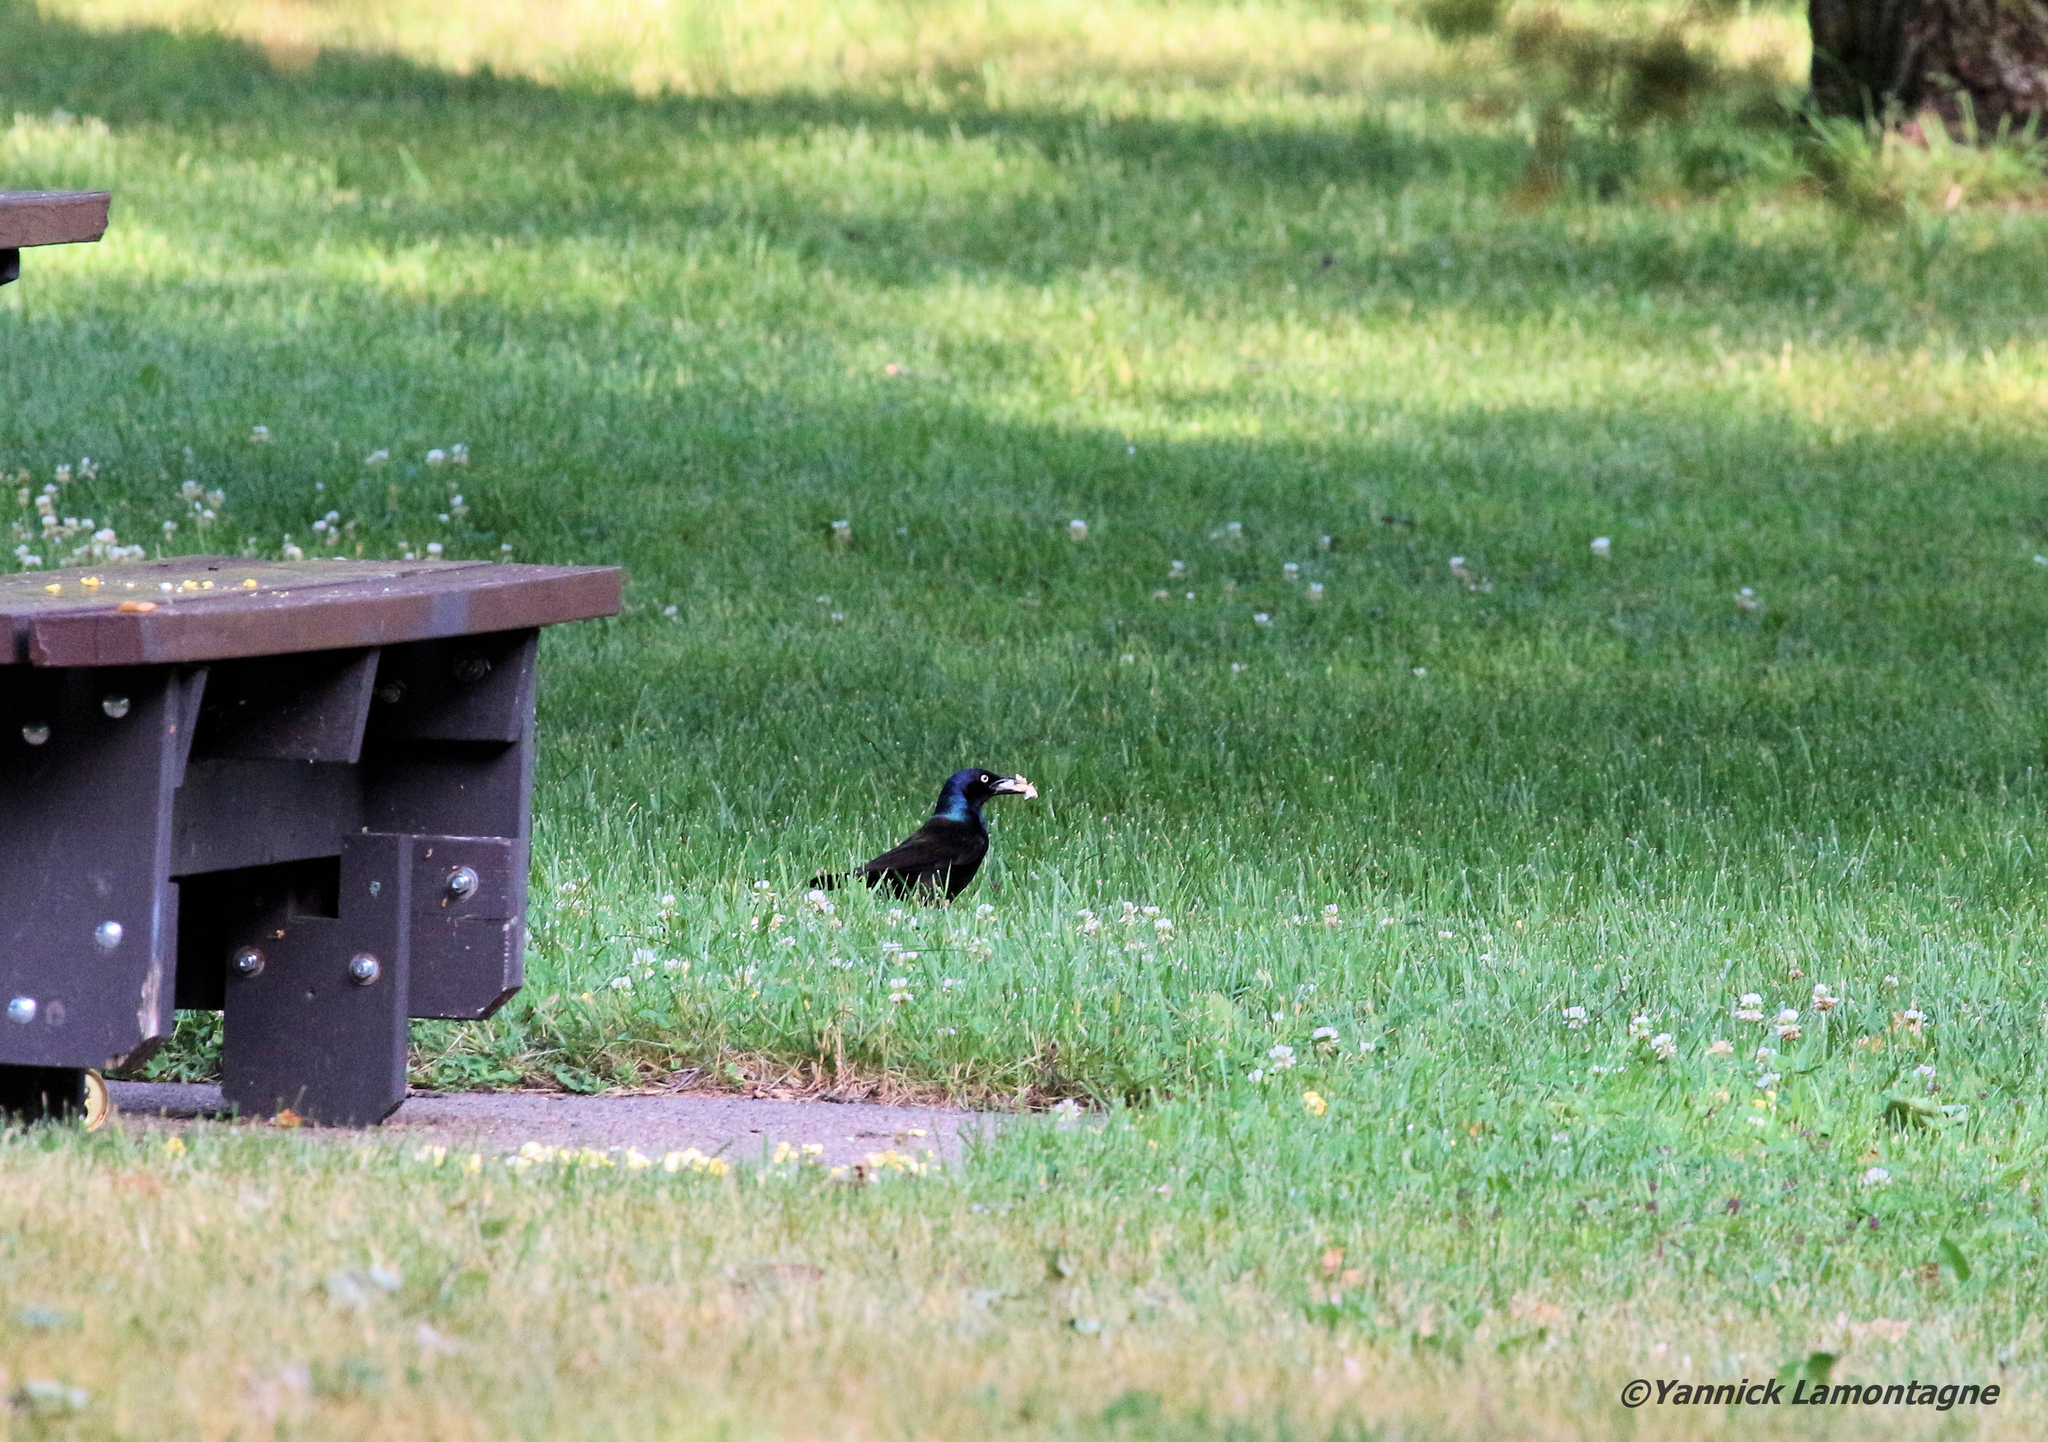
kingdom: Animalia
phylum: Chordata
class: Aves
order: Passeriformes
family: Icteridae
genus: Quiscalus
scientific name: Quiscalus quiscula
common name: Common grackle
